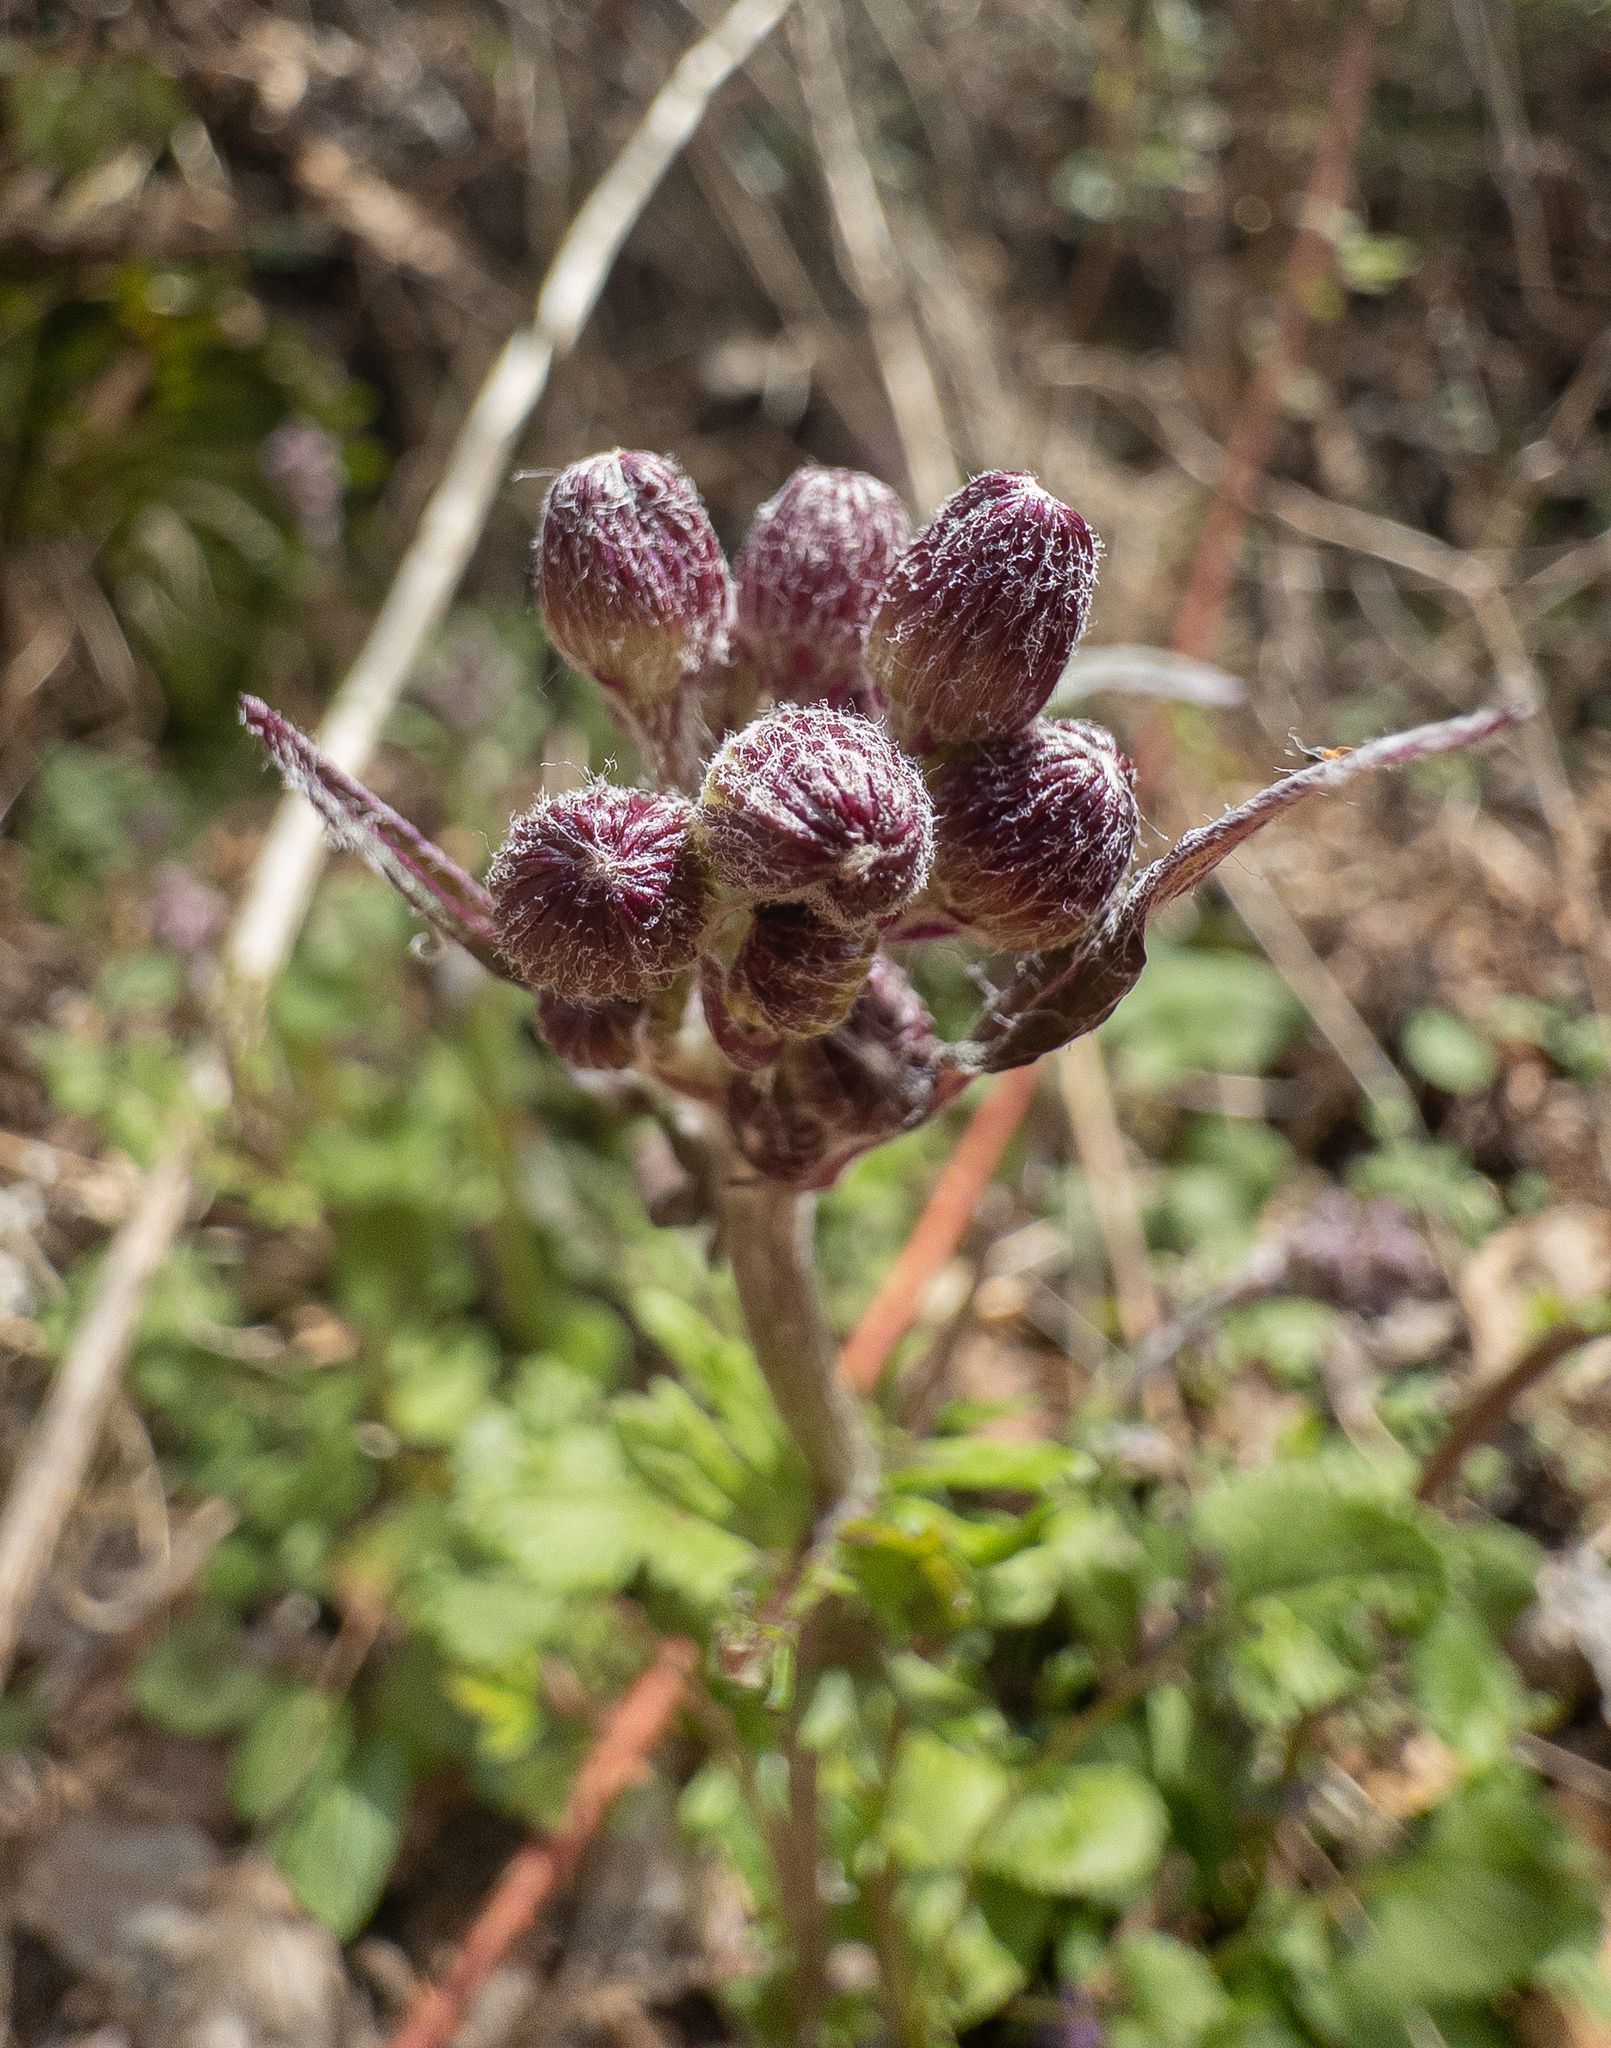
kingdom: Plantae
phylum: Tracheophyta
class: Magnoliopsida
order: Asterales
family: Asteraceae
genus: Packera
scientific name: Packera aurea
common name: Golden groundsel
